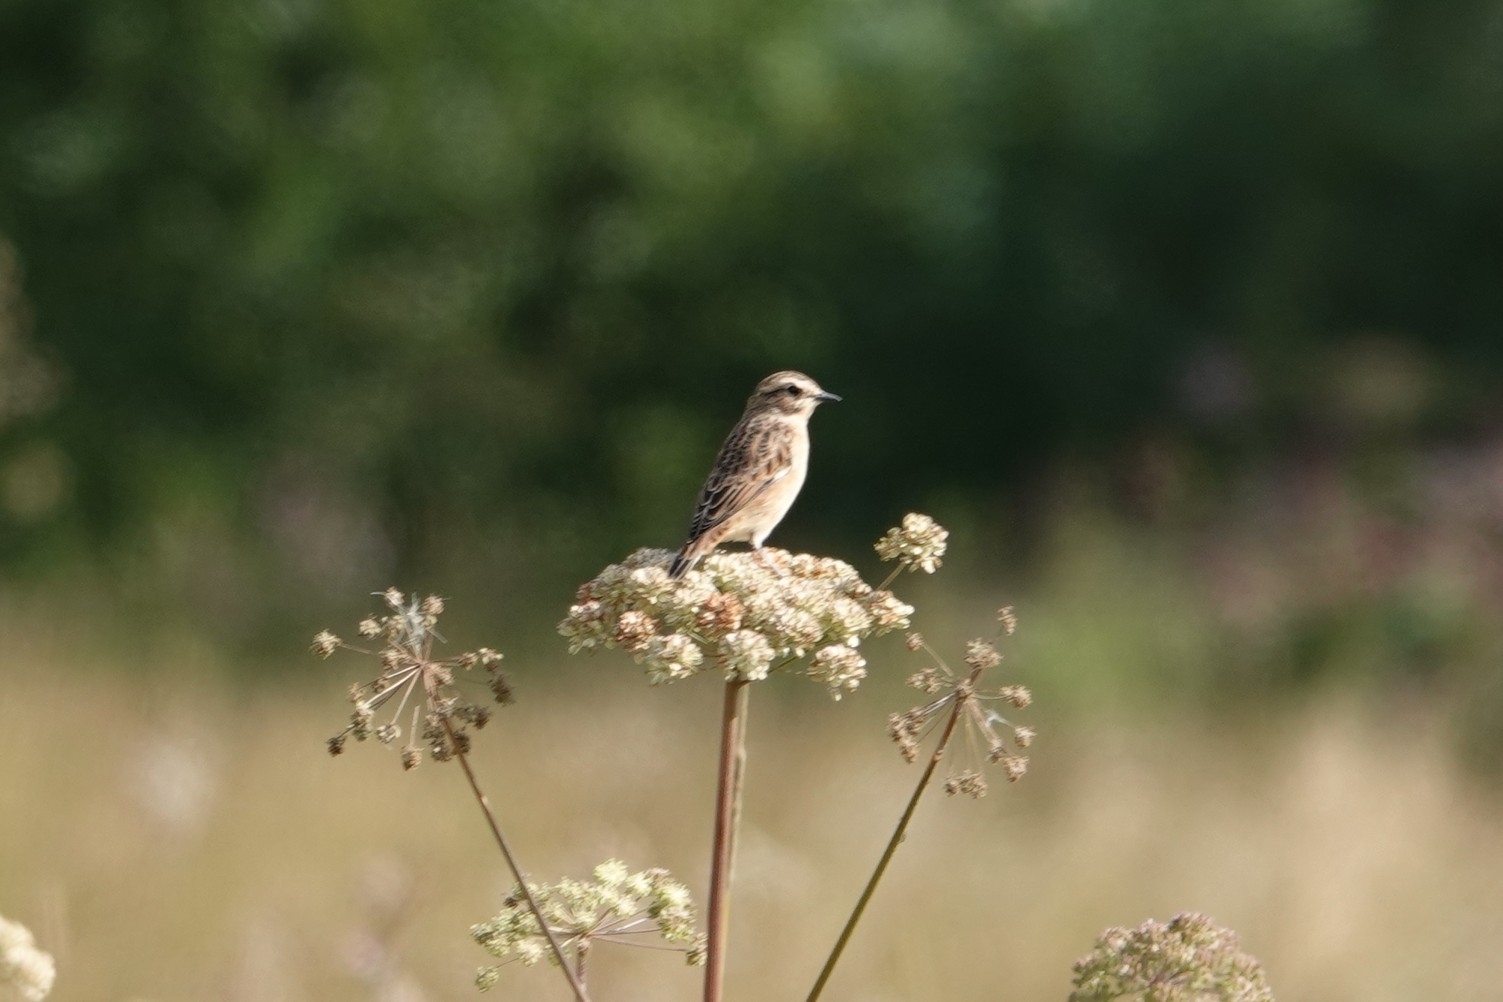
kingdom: Animalia
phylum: Chordata
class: Aves
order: Passeriformes
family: Muscicapidae
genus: Saxicola
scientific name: Saxicola rubetra
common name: Whinchat
